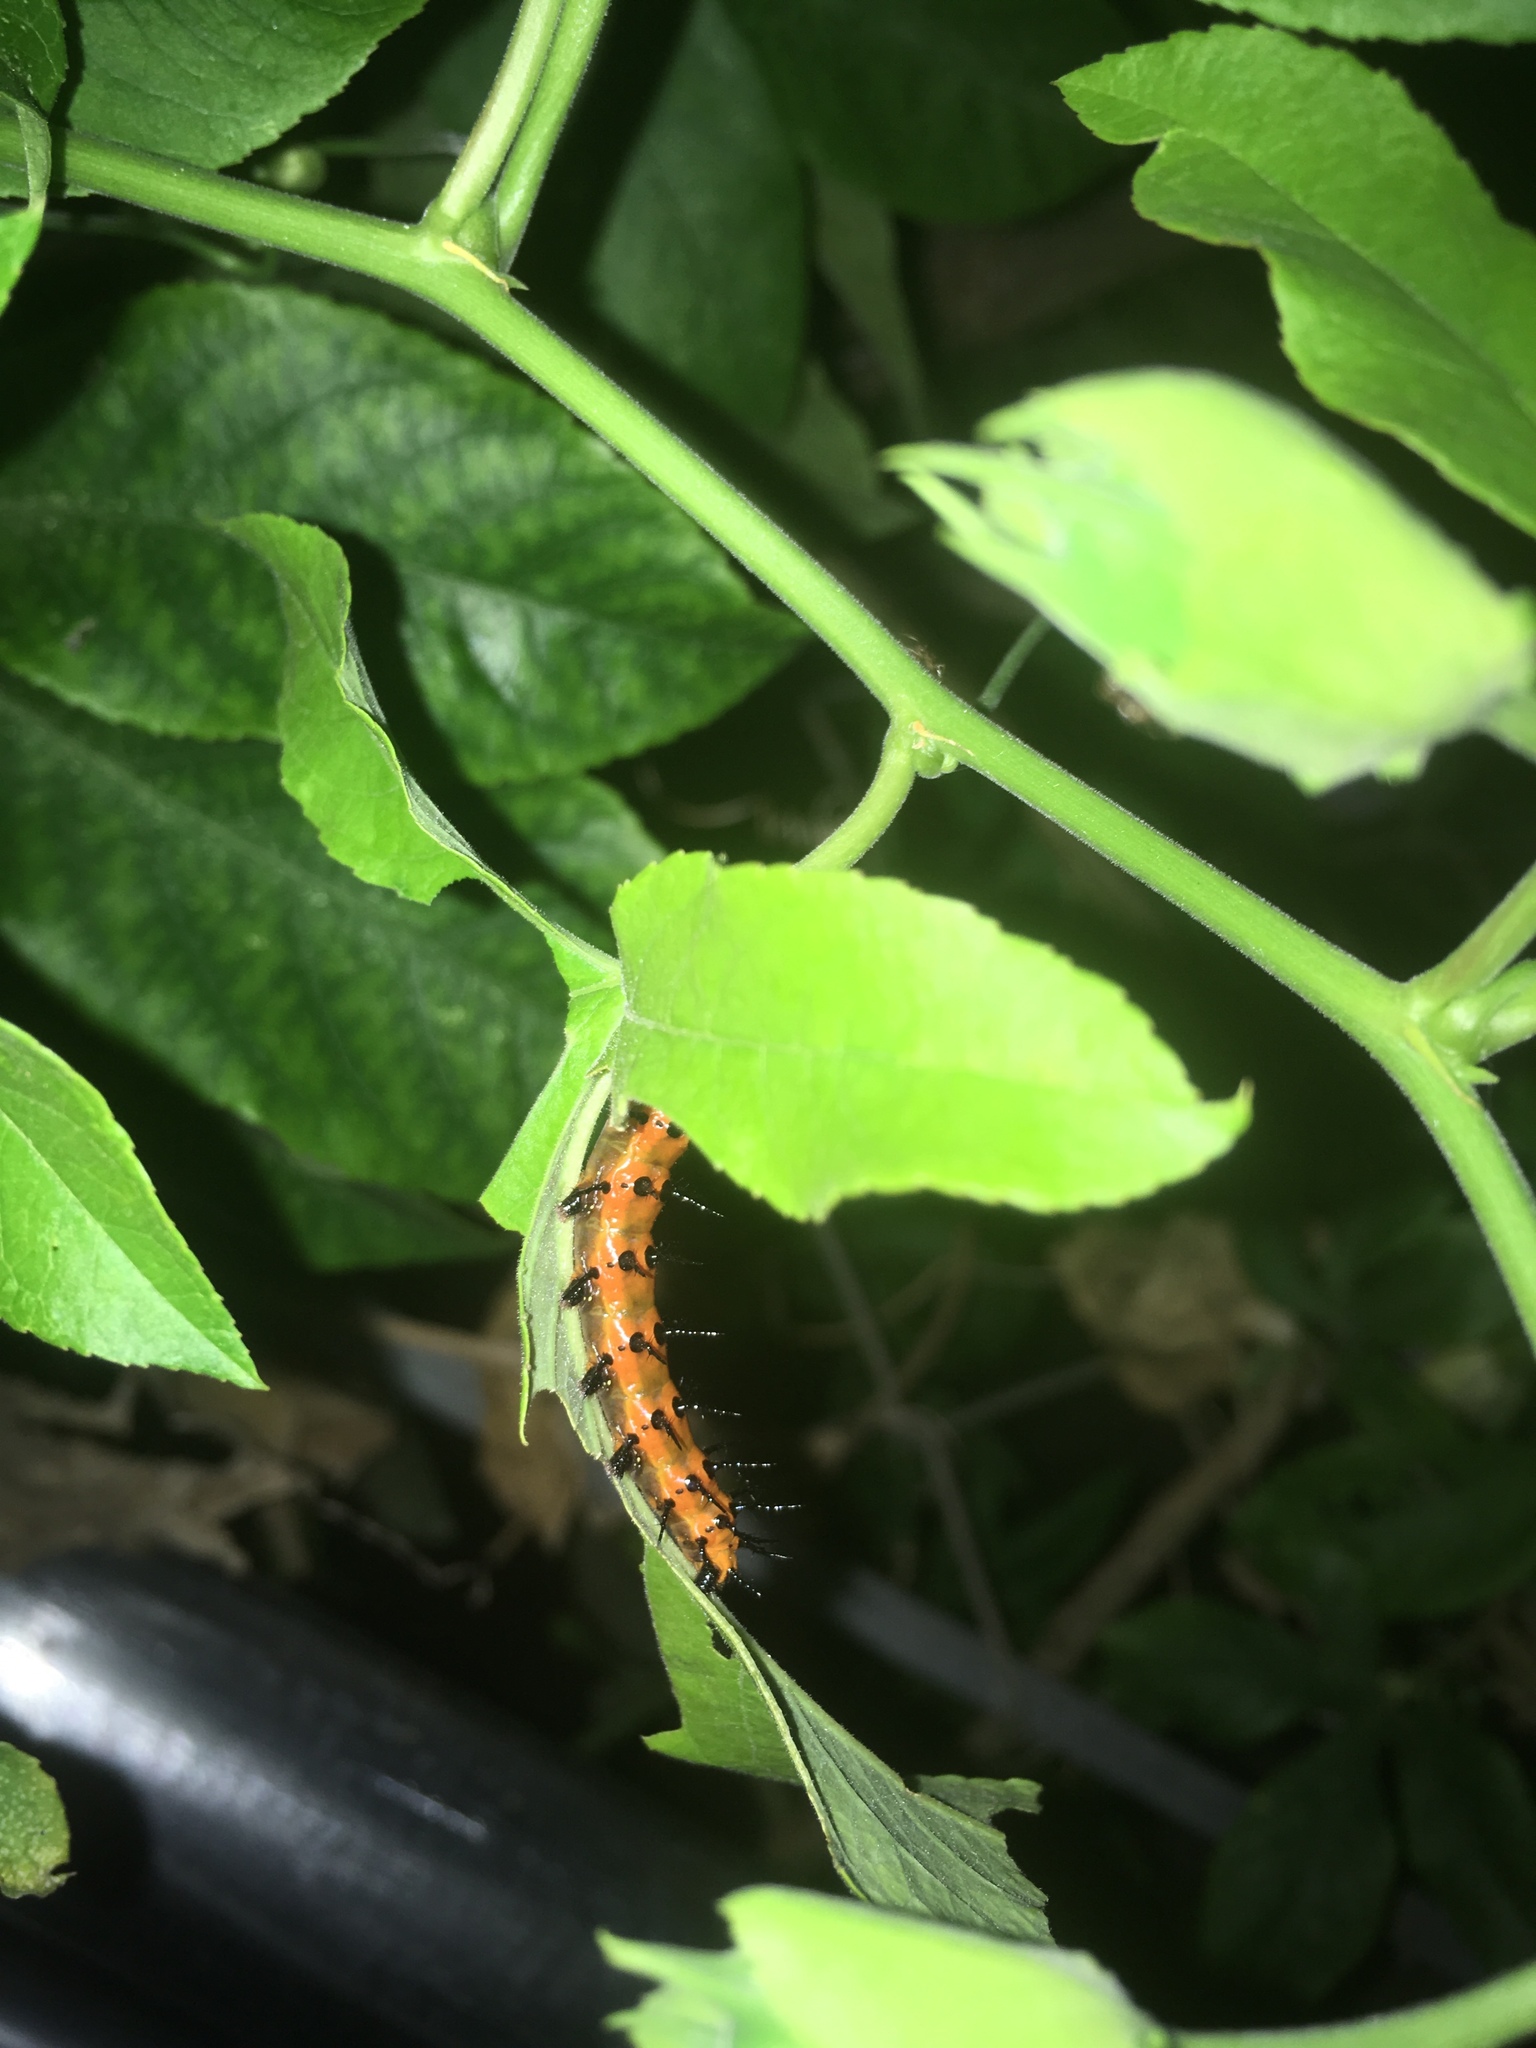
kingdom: Animalia
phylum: Arthropoda
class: Insecta
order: Lepidoptera
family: Nymphalidae
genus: Dione
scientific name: Dione vanillae
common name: Gulf fritillary
